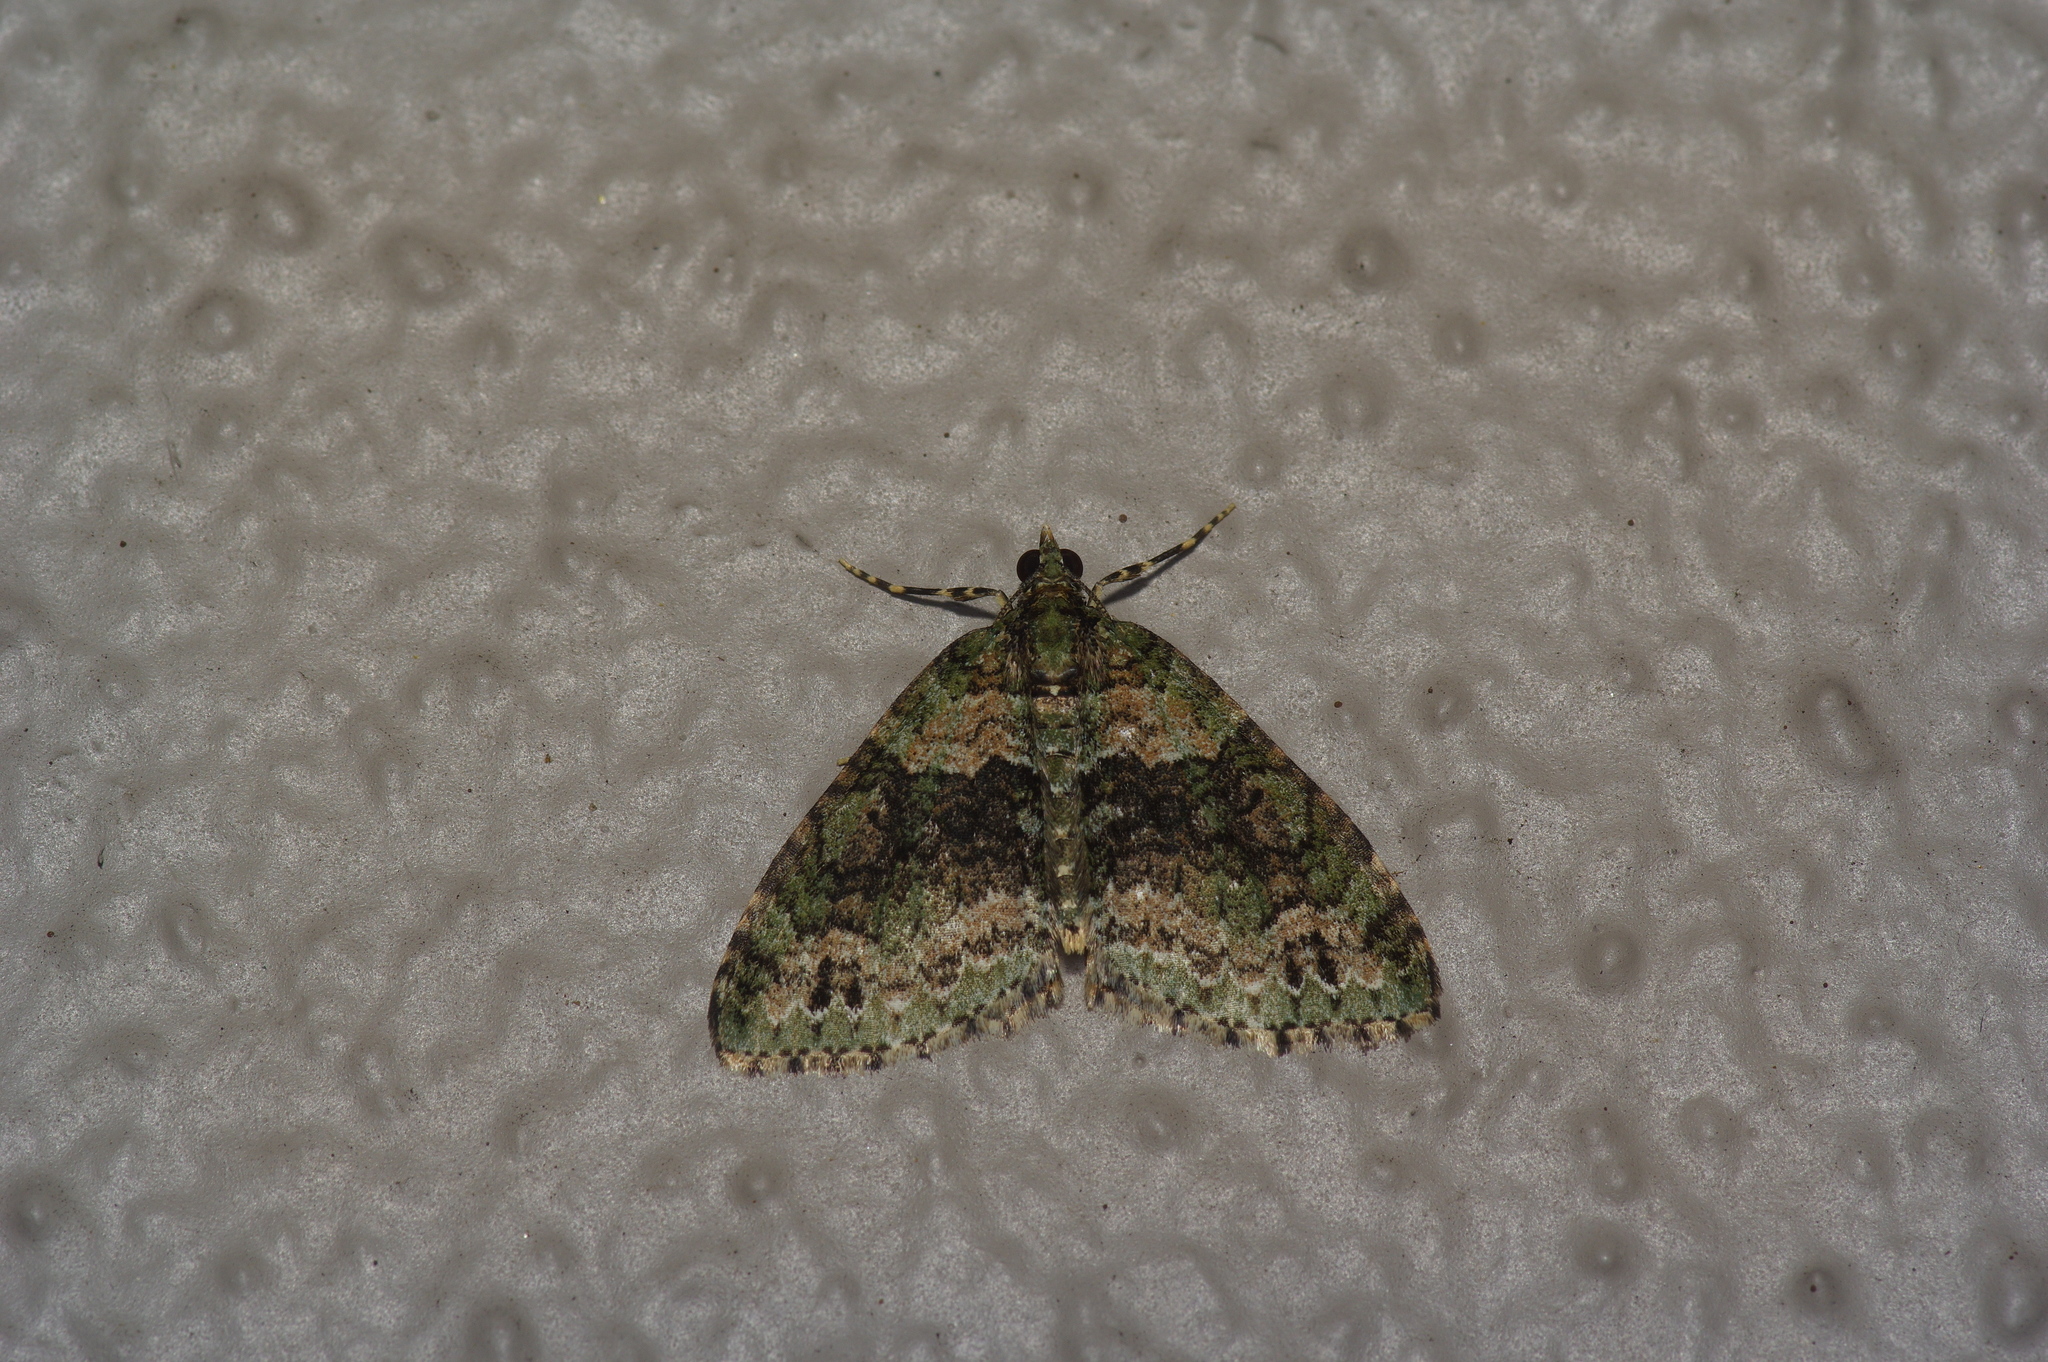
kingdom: Animalia
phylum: Arthropoda
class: Insecta
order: Lepidoptera
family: Geometridae
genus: Hammaptera
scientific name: Hammaptera parinotata
